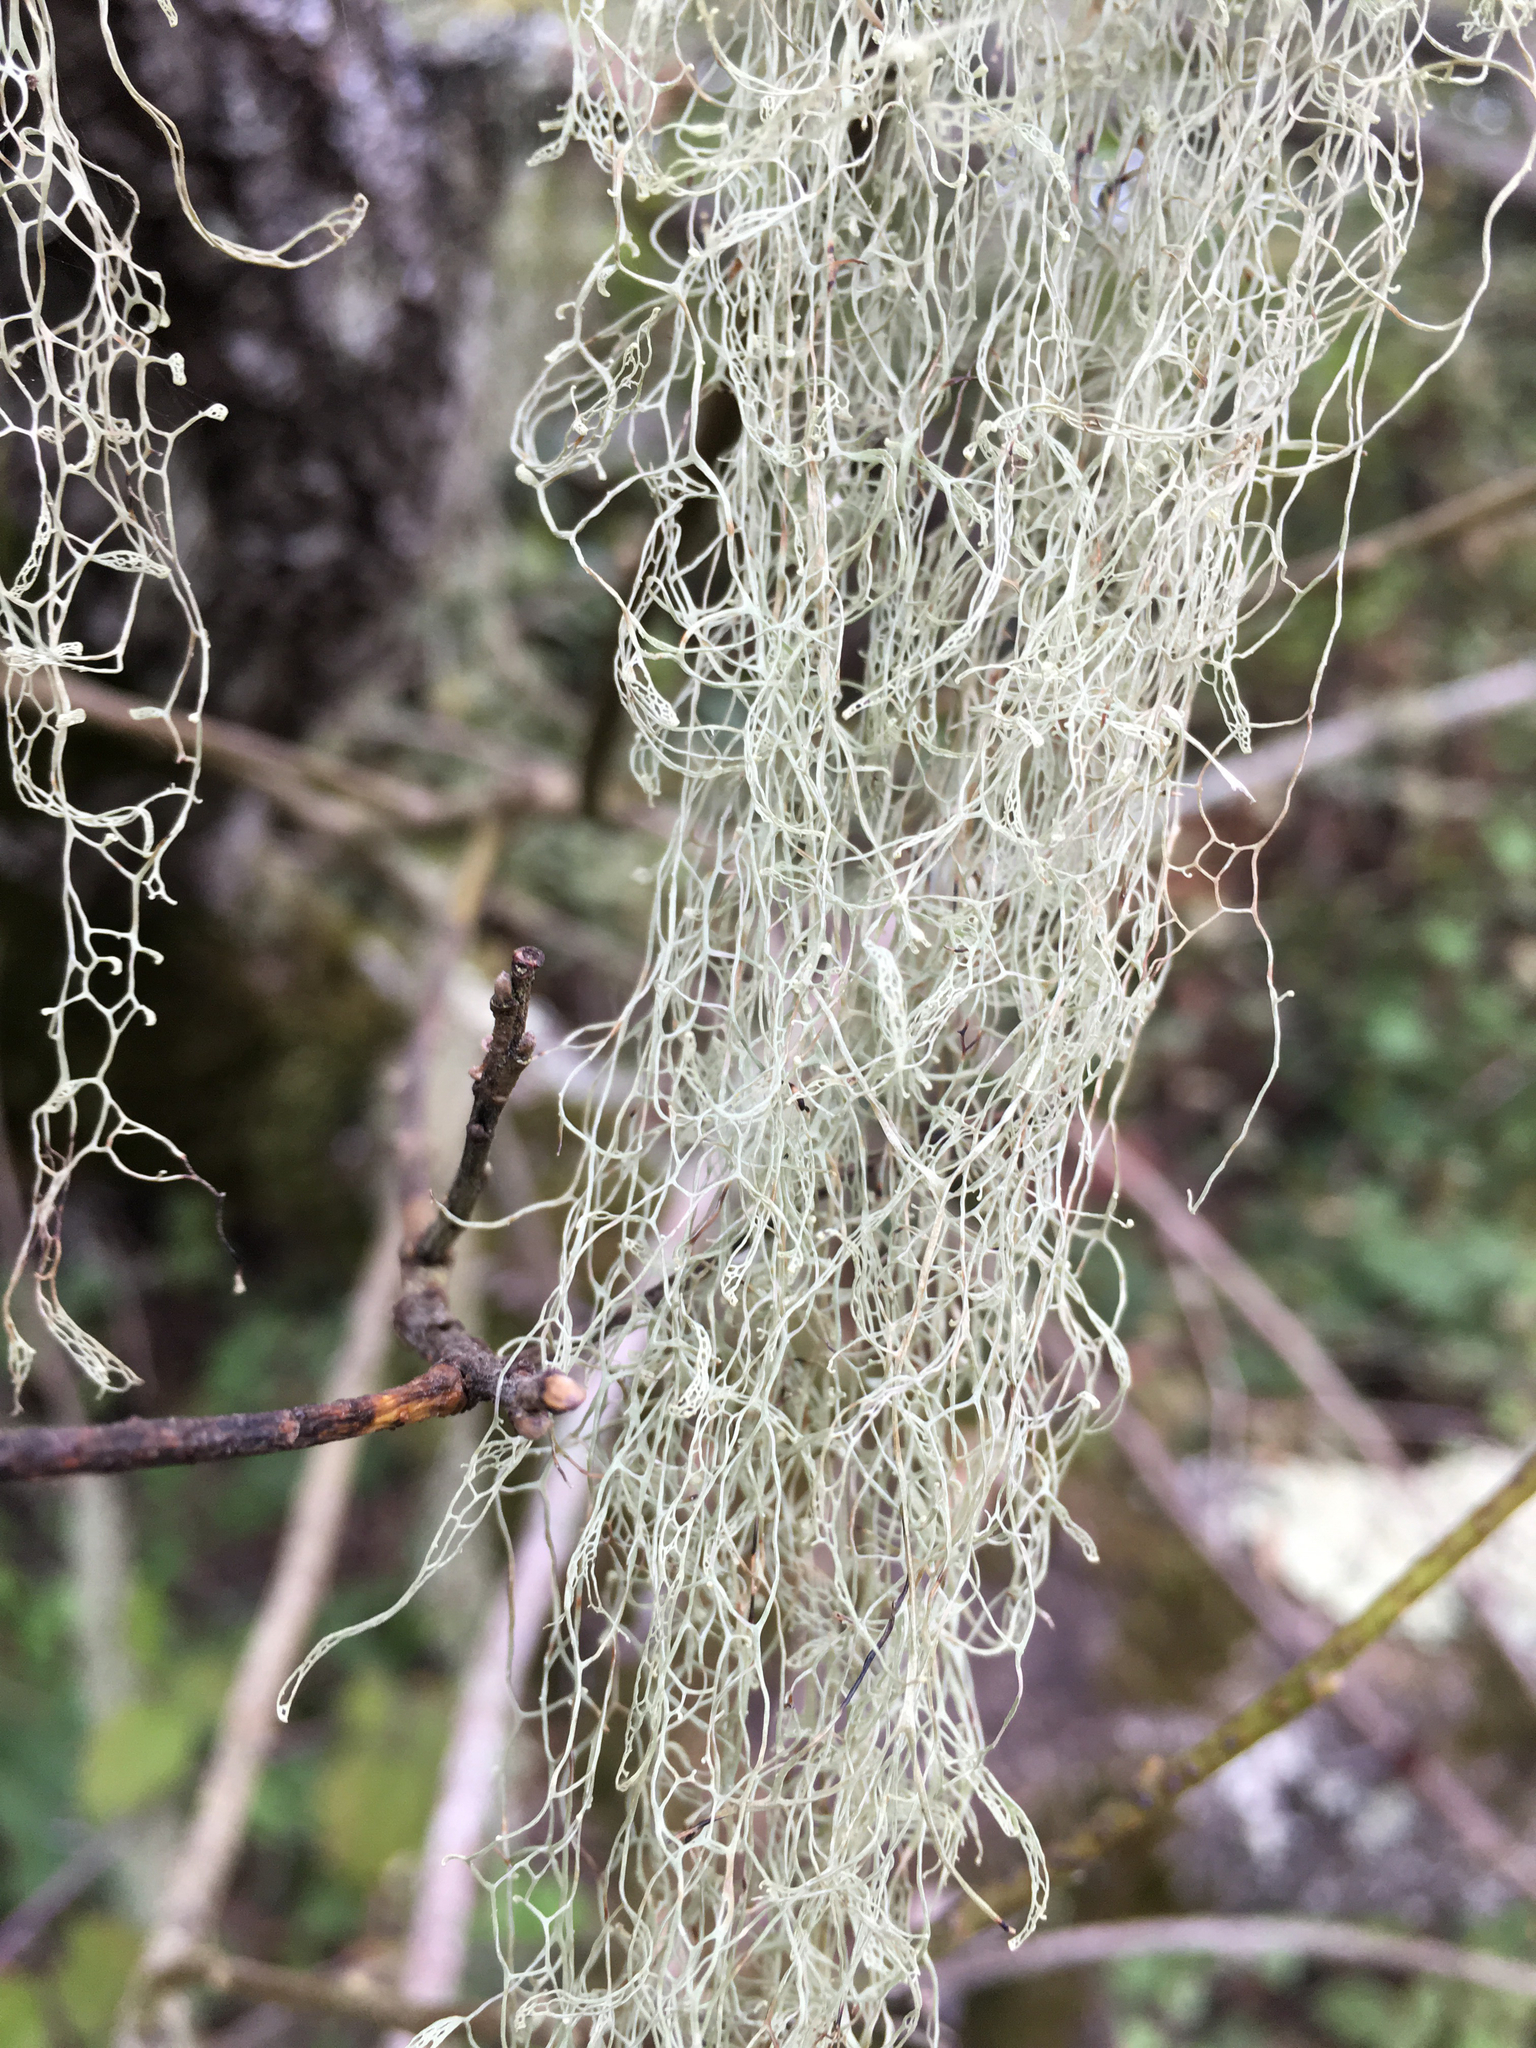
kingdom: Fungi
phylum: Ascomycota
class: Lecanoromycetes
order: Lecanorales
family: Ramalinaceae
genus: Ramalina
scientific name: Ramalina menziesii
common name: Lace lichen
